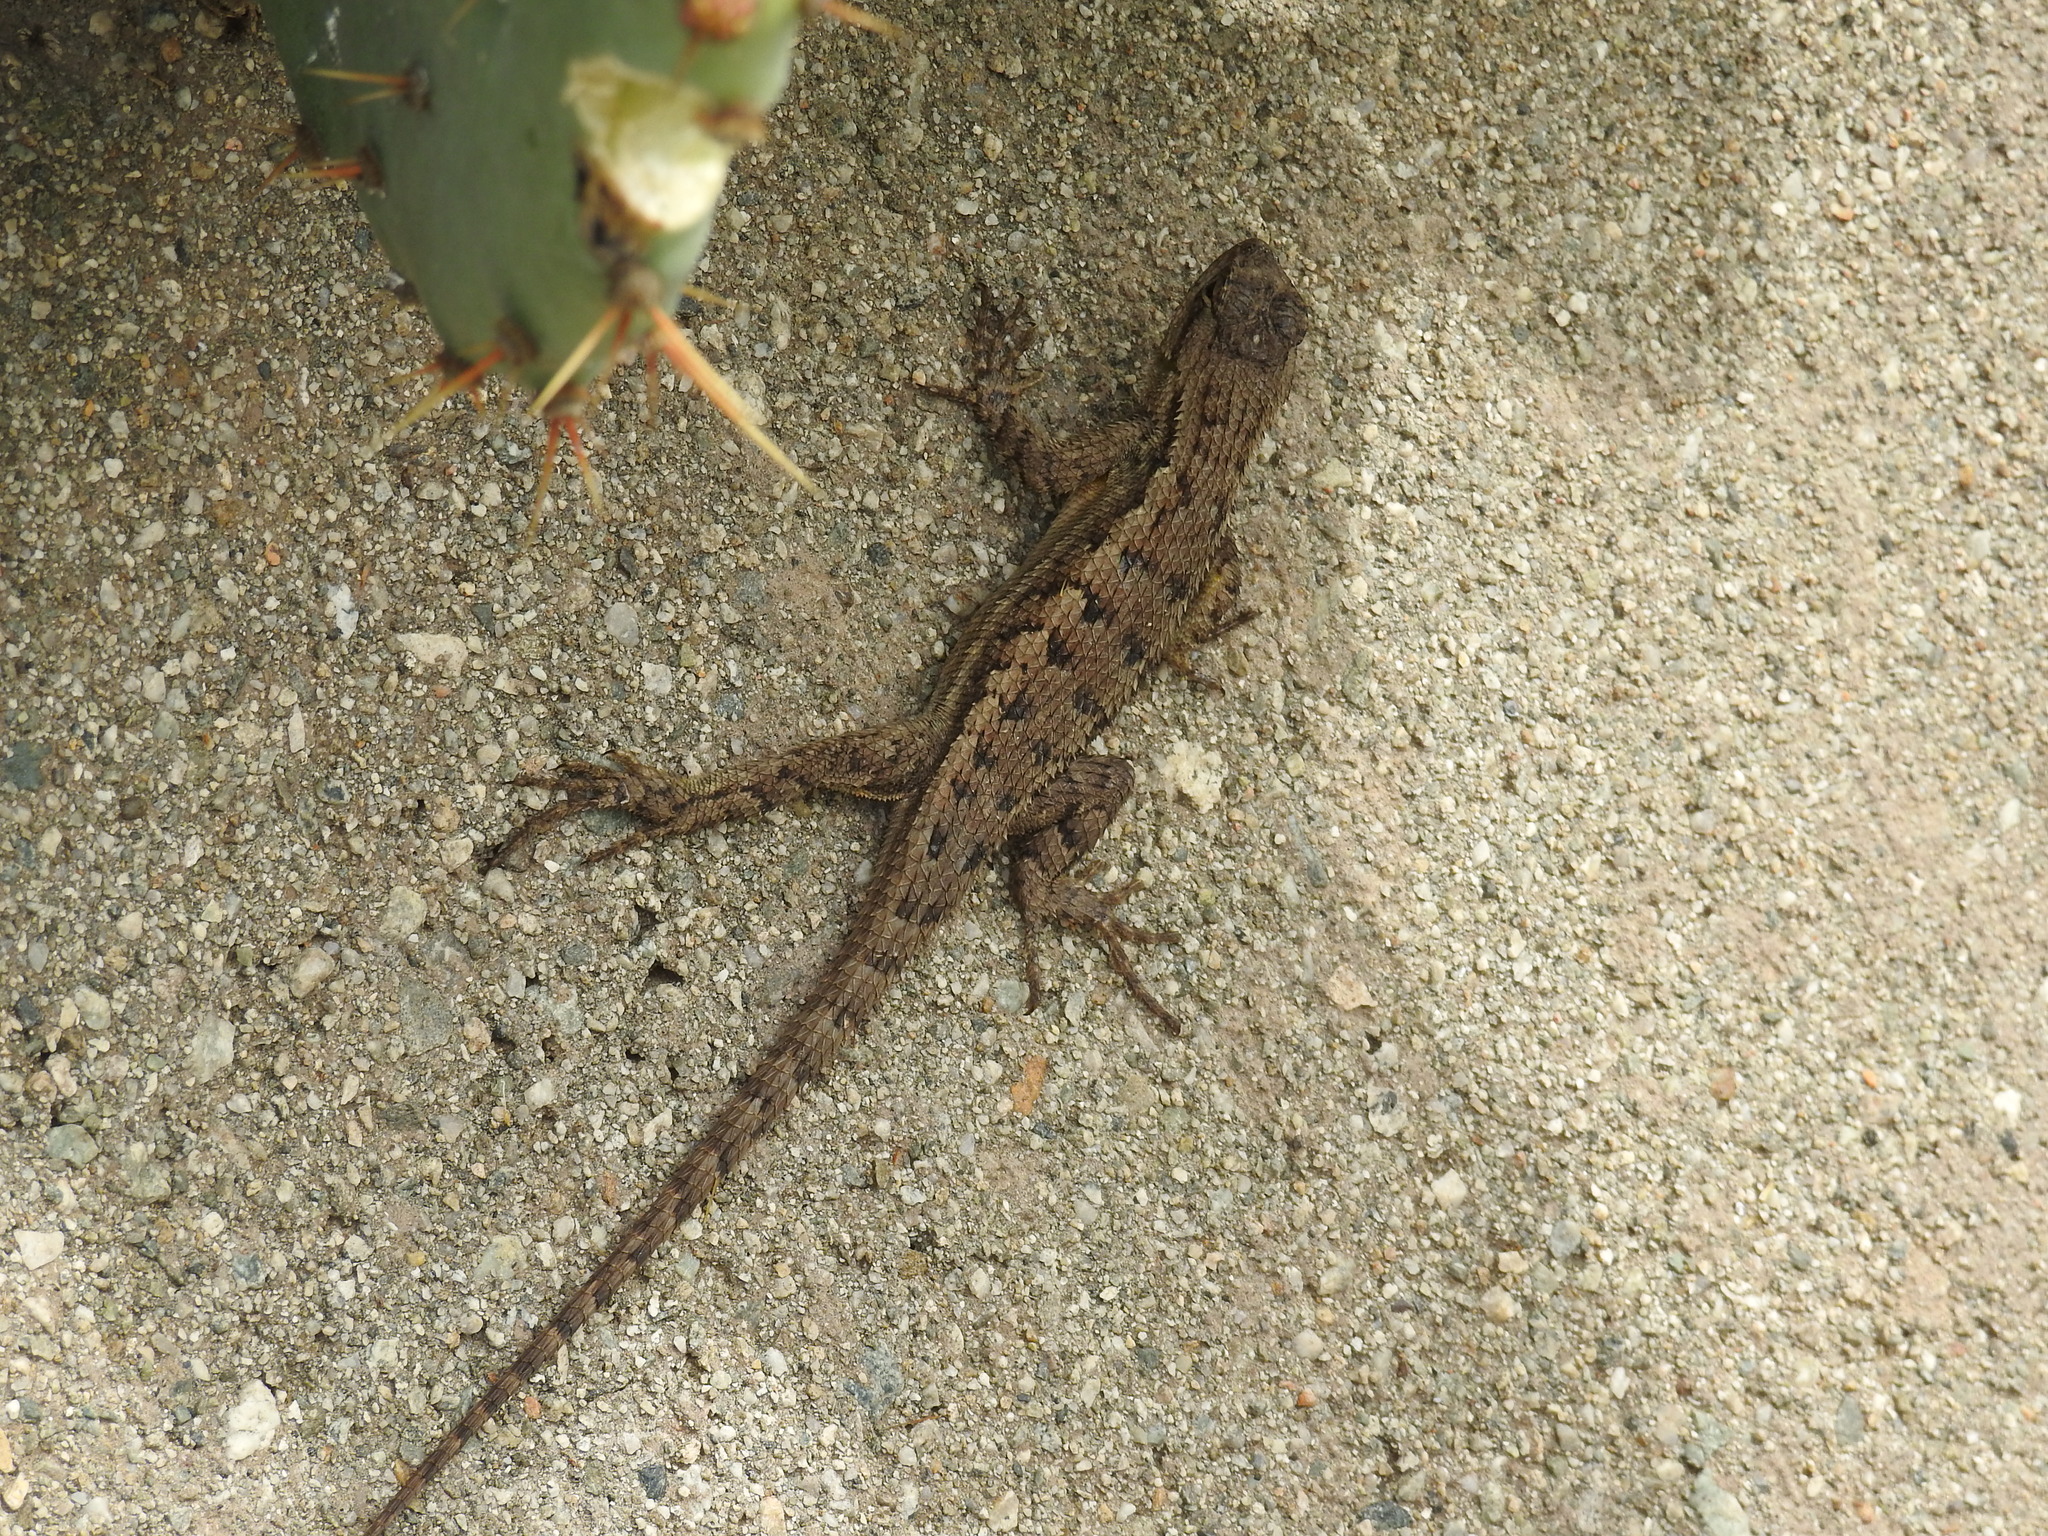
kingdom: Animalia
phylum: Chordata
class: Squamata
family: Phrynosomatidae
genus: Sceloporus
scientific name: Sceloporus occidentalis
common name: Western fence lizard
